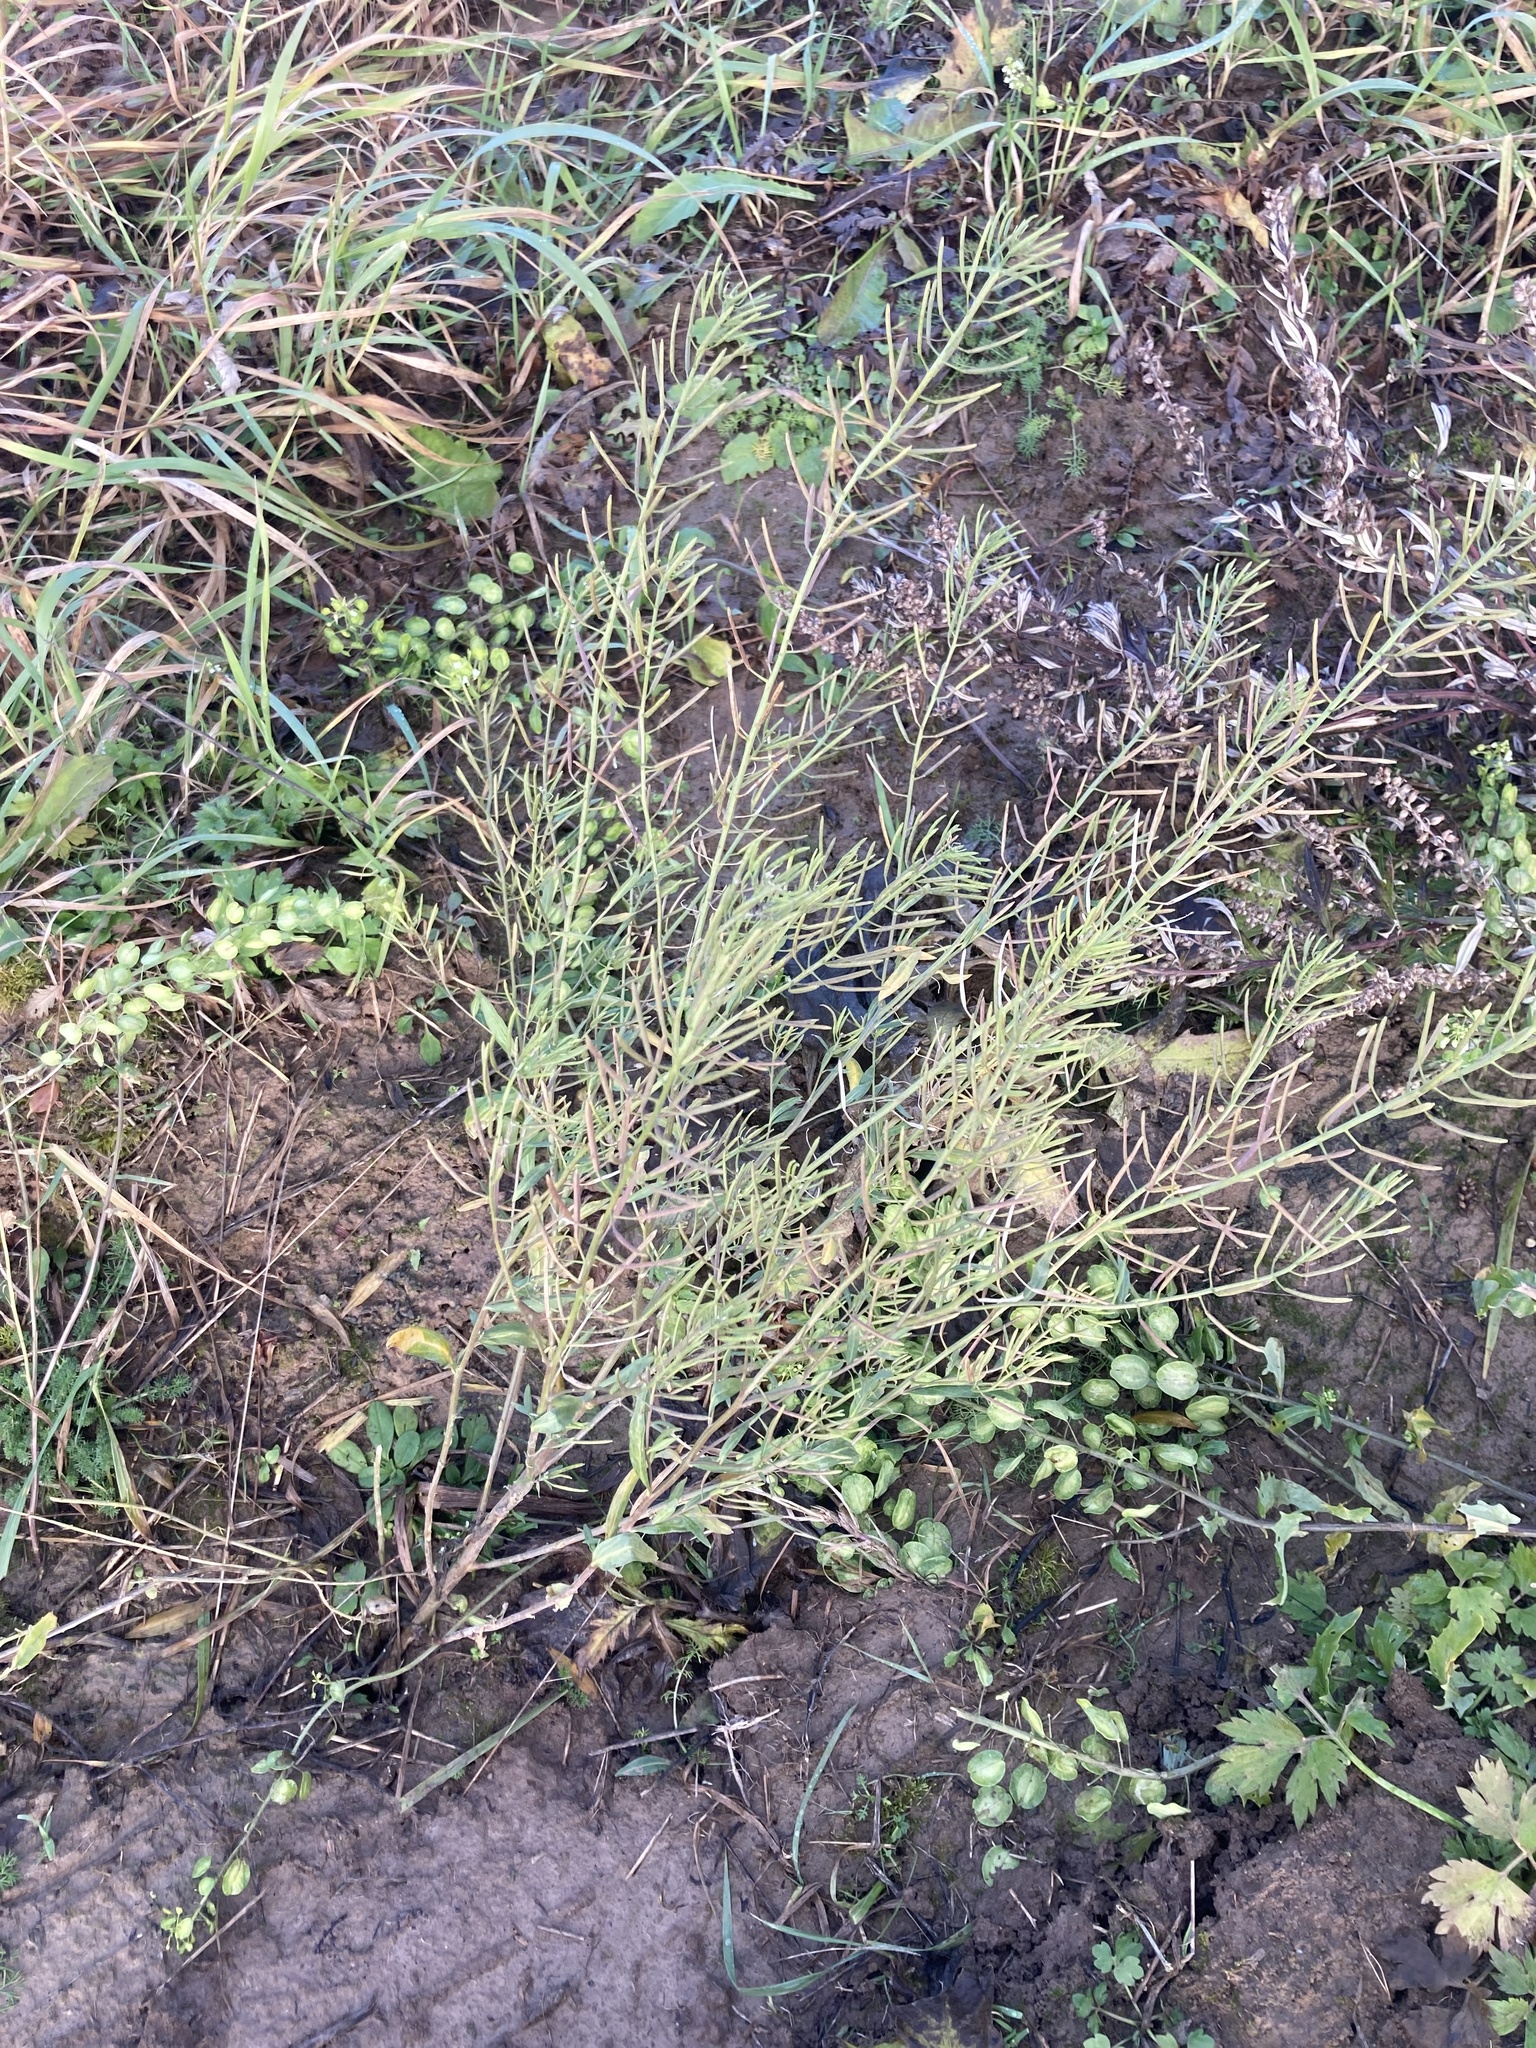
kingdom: Plantae
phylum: Tracheophyta
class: Magnoliopsida
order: Brassicales
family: Brassicaceae
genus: Erysimum
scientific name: Erysimum cheiranthoides
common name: Treacle mustard
